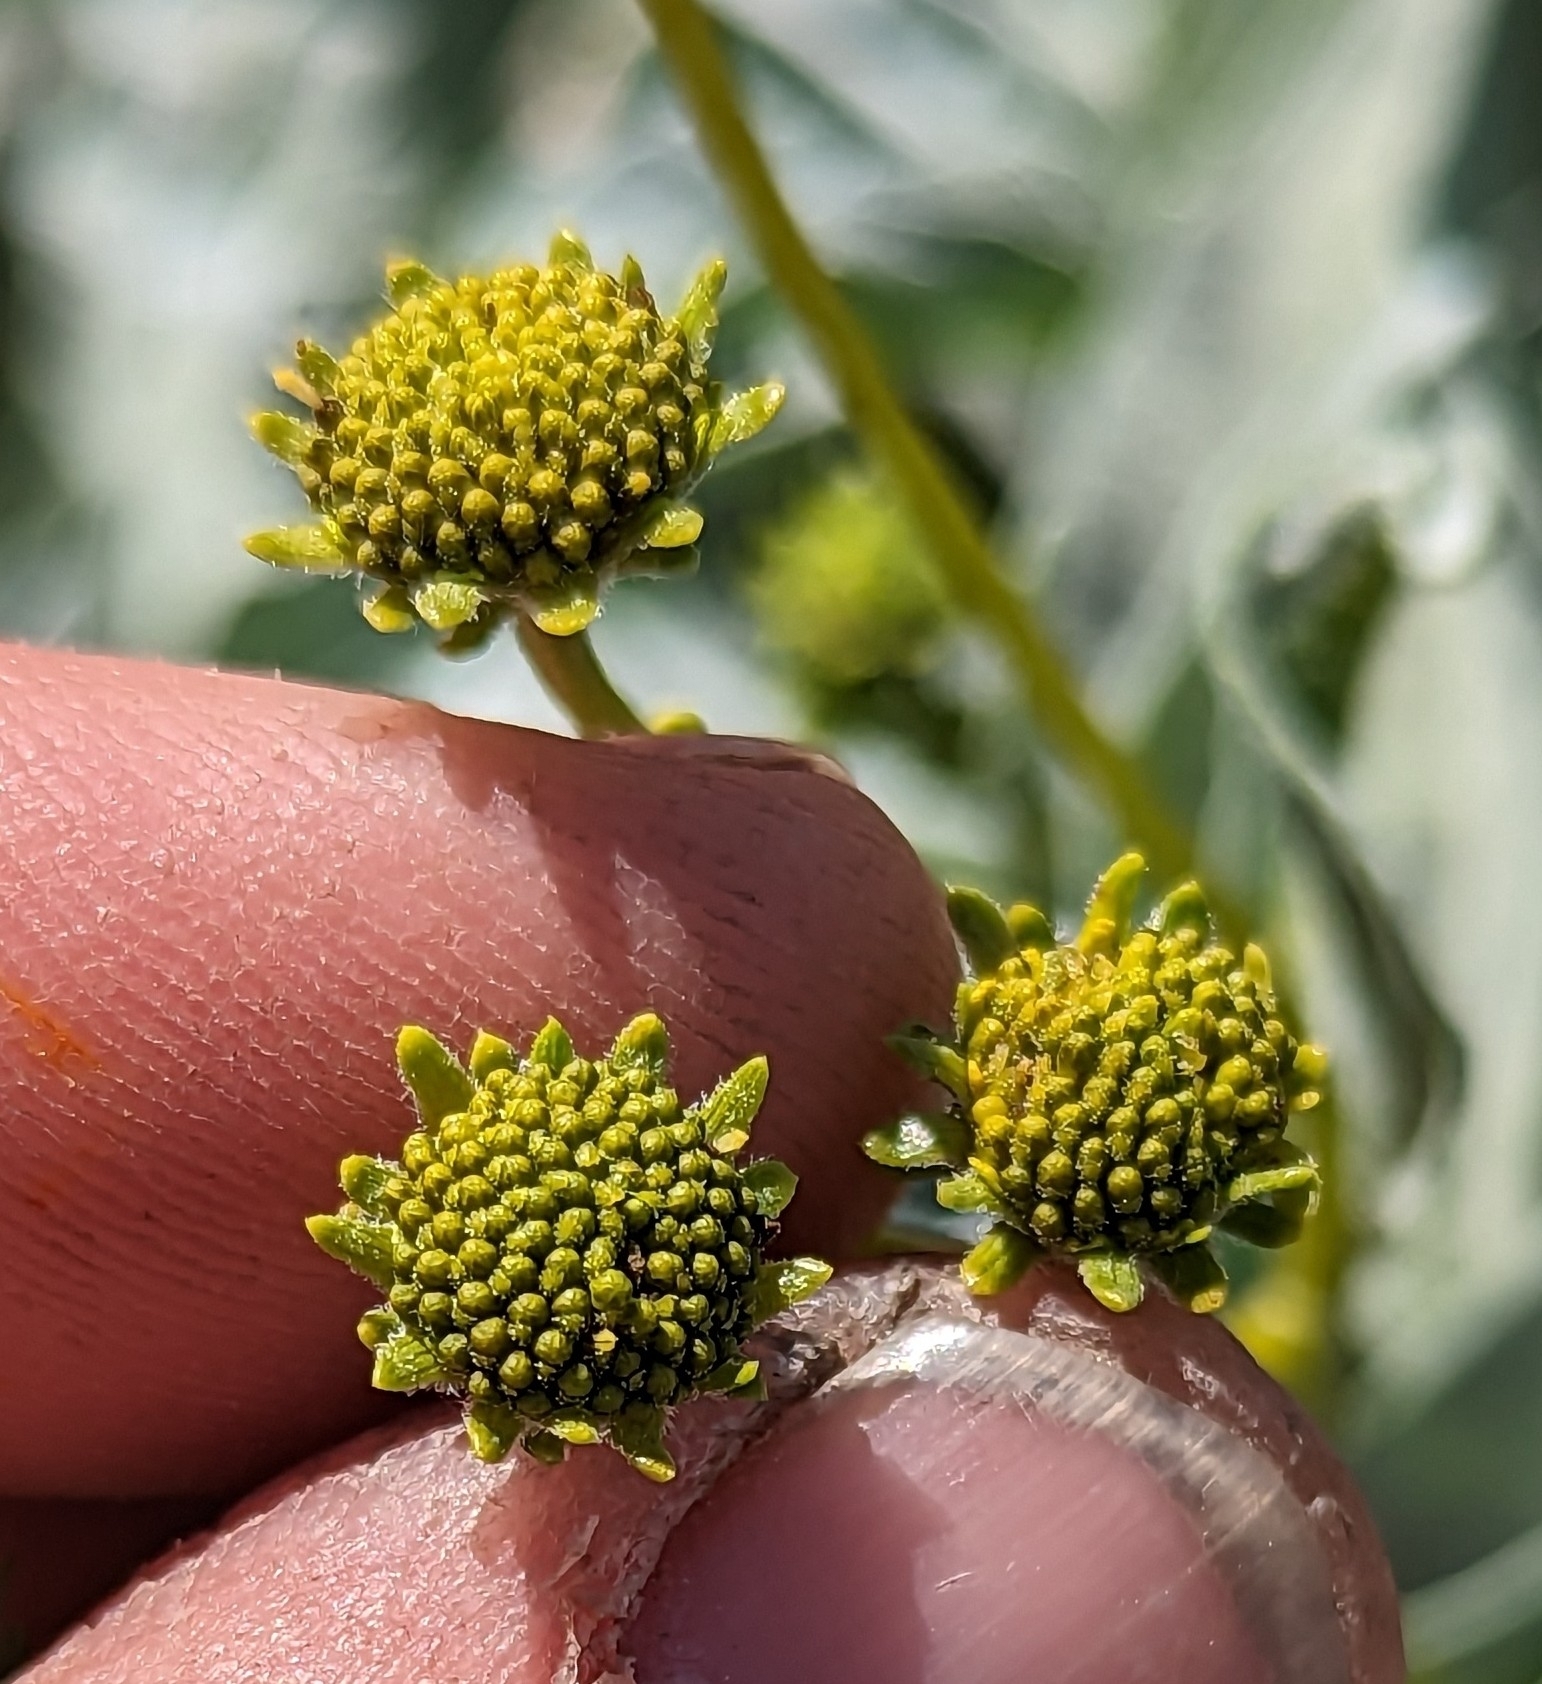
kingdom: Plantae
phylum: Tracheophyta
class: Magnoliopsida
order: Asterales
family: Asteraceae
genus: Encelia
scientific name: Encelia farinosa
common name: Brittlebush
